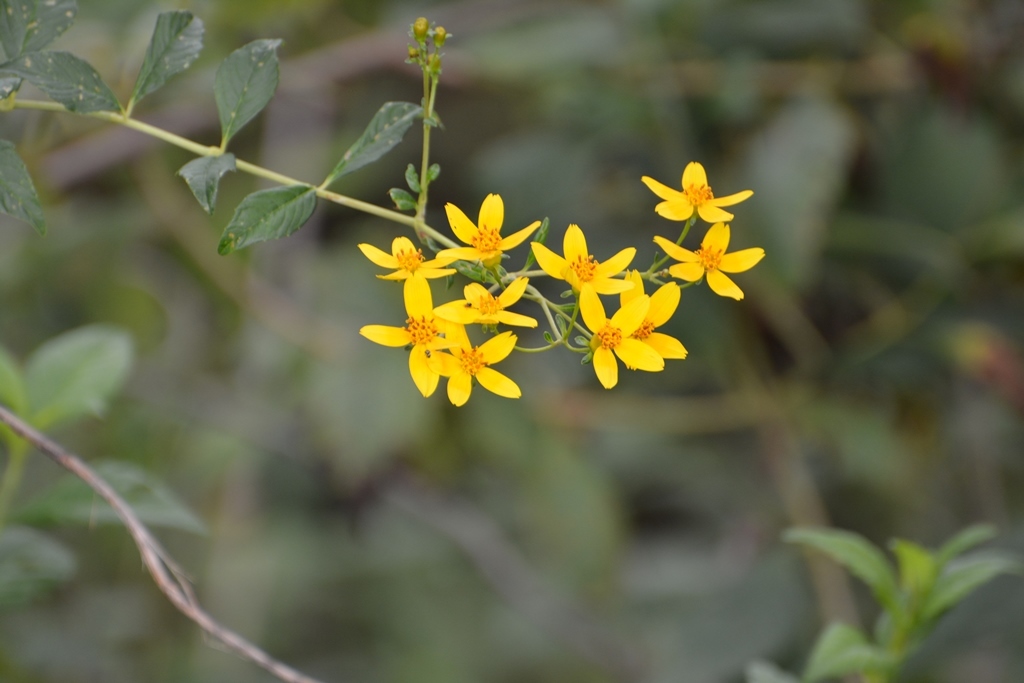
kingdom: Plantae
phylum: Tracheophyta
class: Magnoliopsida
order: Asterales
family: Asteraceae
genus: Electranthera
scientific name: Electranthera mutica
